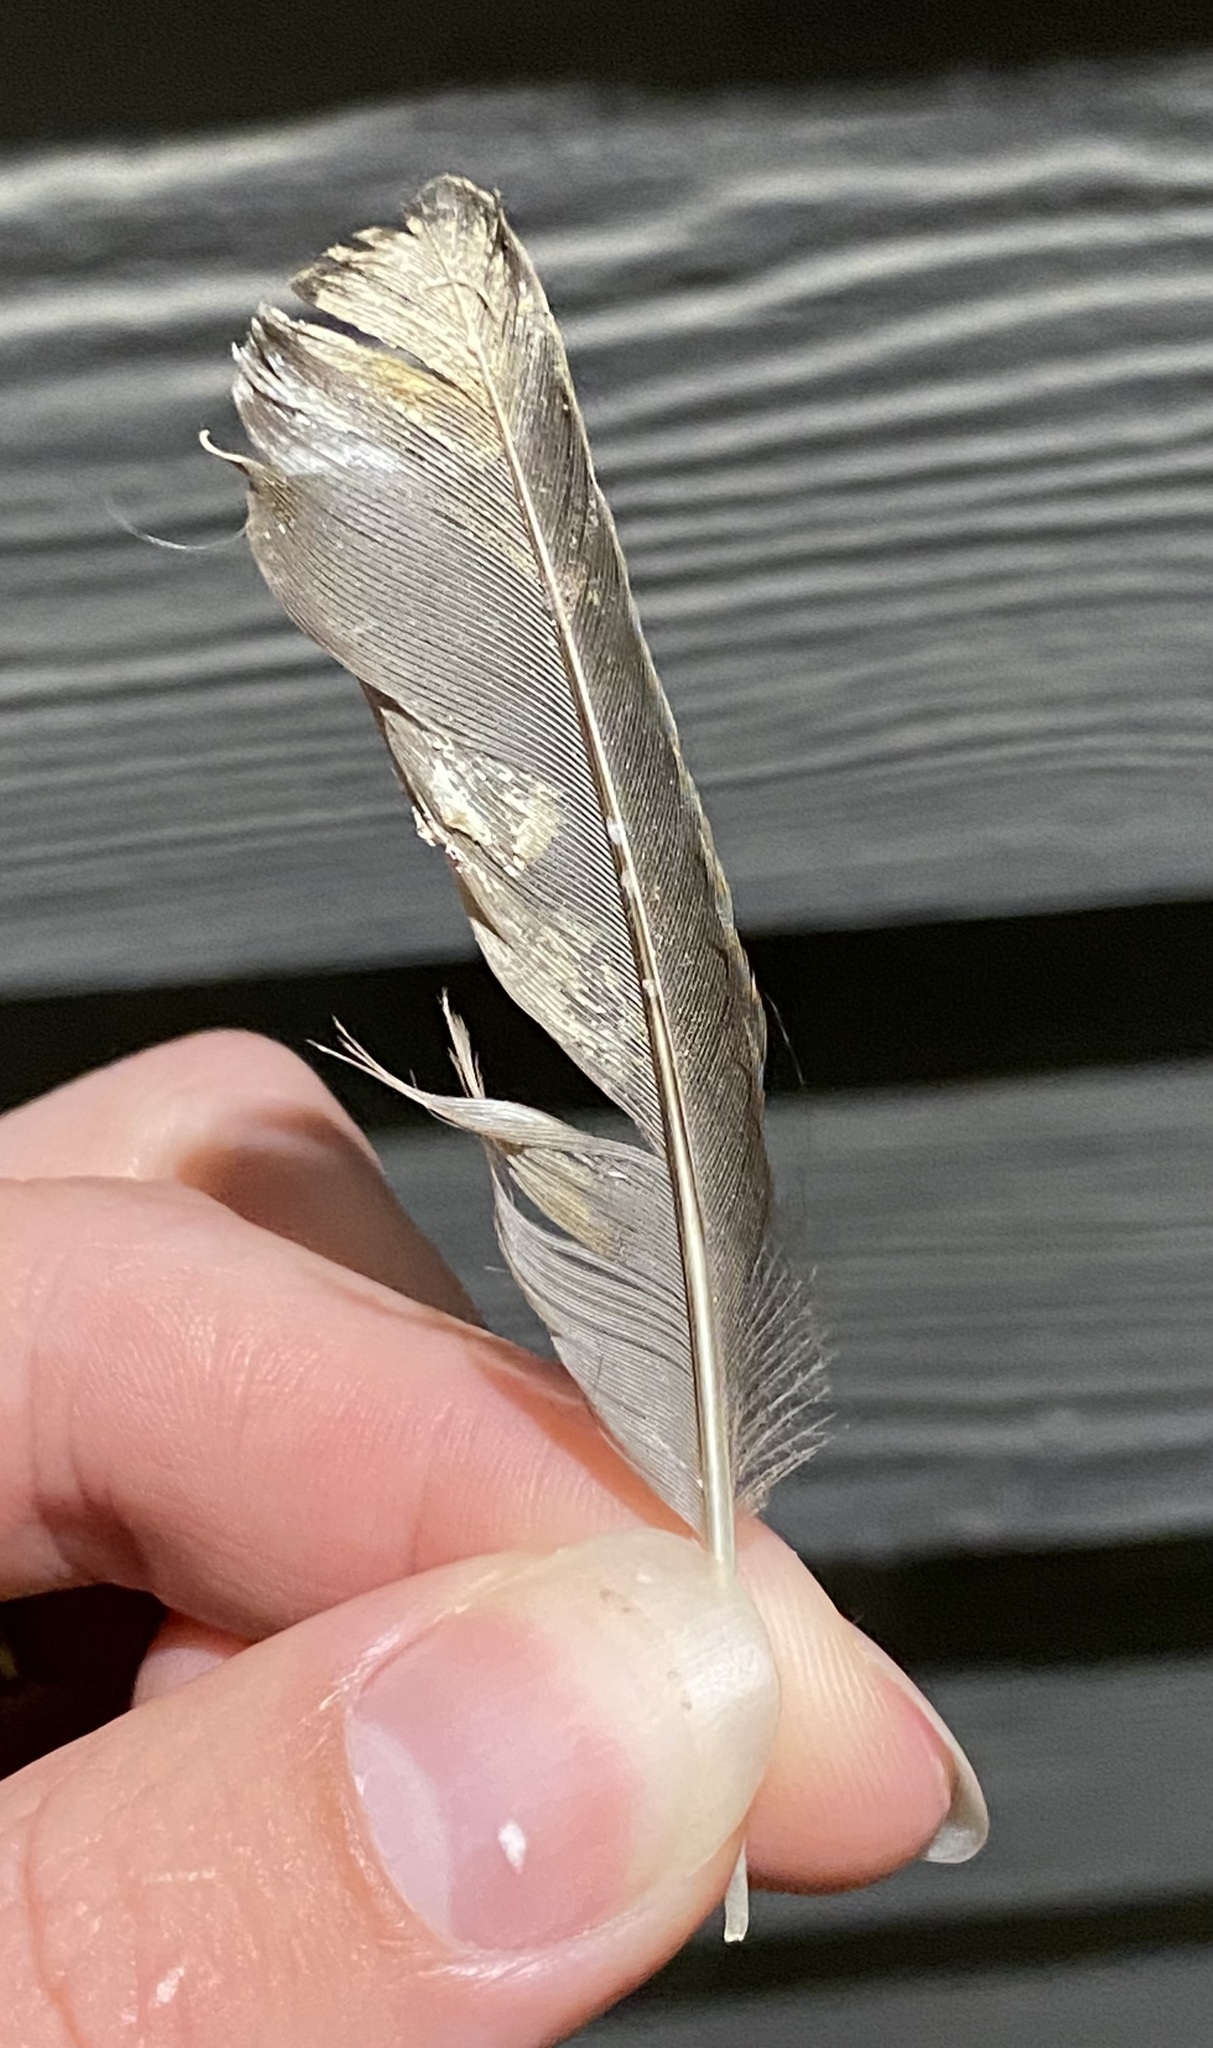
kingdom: Animalia
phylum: Chordata
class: Aves
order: Passeriformes
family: Sturnidae
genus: Sturnus
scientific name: Sturnus vulgaris
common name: Common starling
